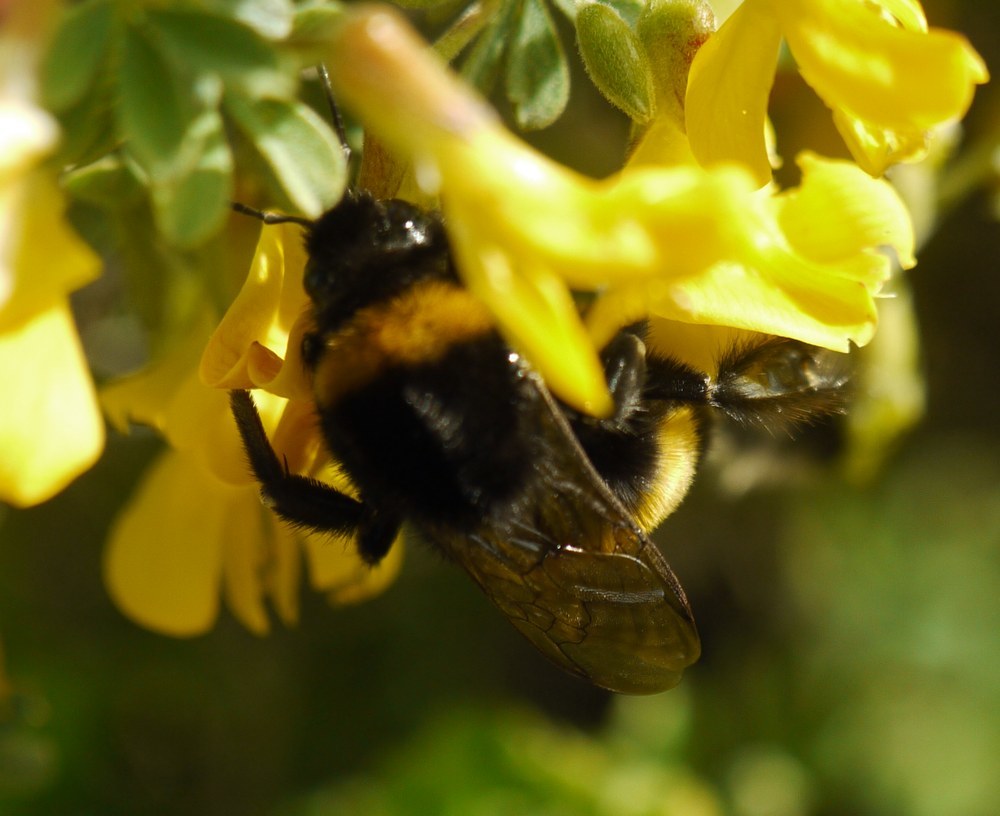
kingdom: Animalia
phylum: Arthropoda
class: Insecta
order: Hymenoptera
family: Apidae
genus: Bombus
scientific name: Bombus
